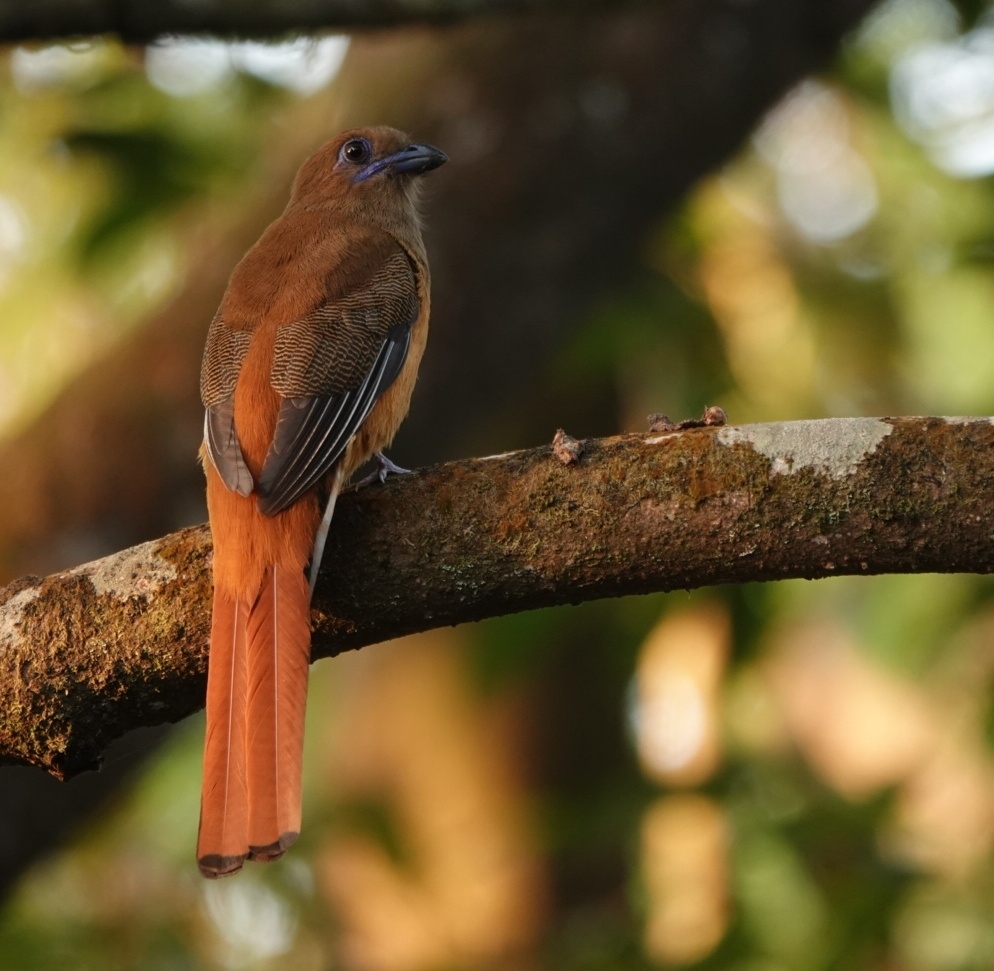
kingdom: Animalia
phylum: Chordata
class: Aves
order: Trogoniformes
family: Trogonidae
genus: Harpactes
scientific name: Harpactes fasciatus
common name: Malabar trogon
